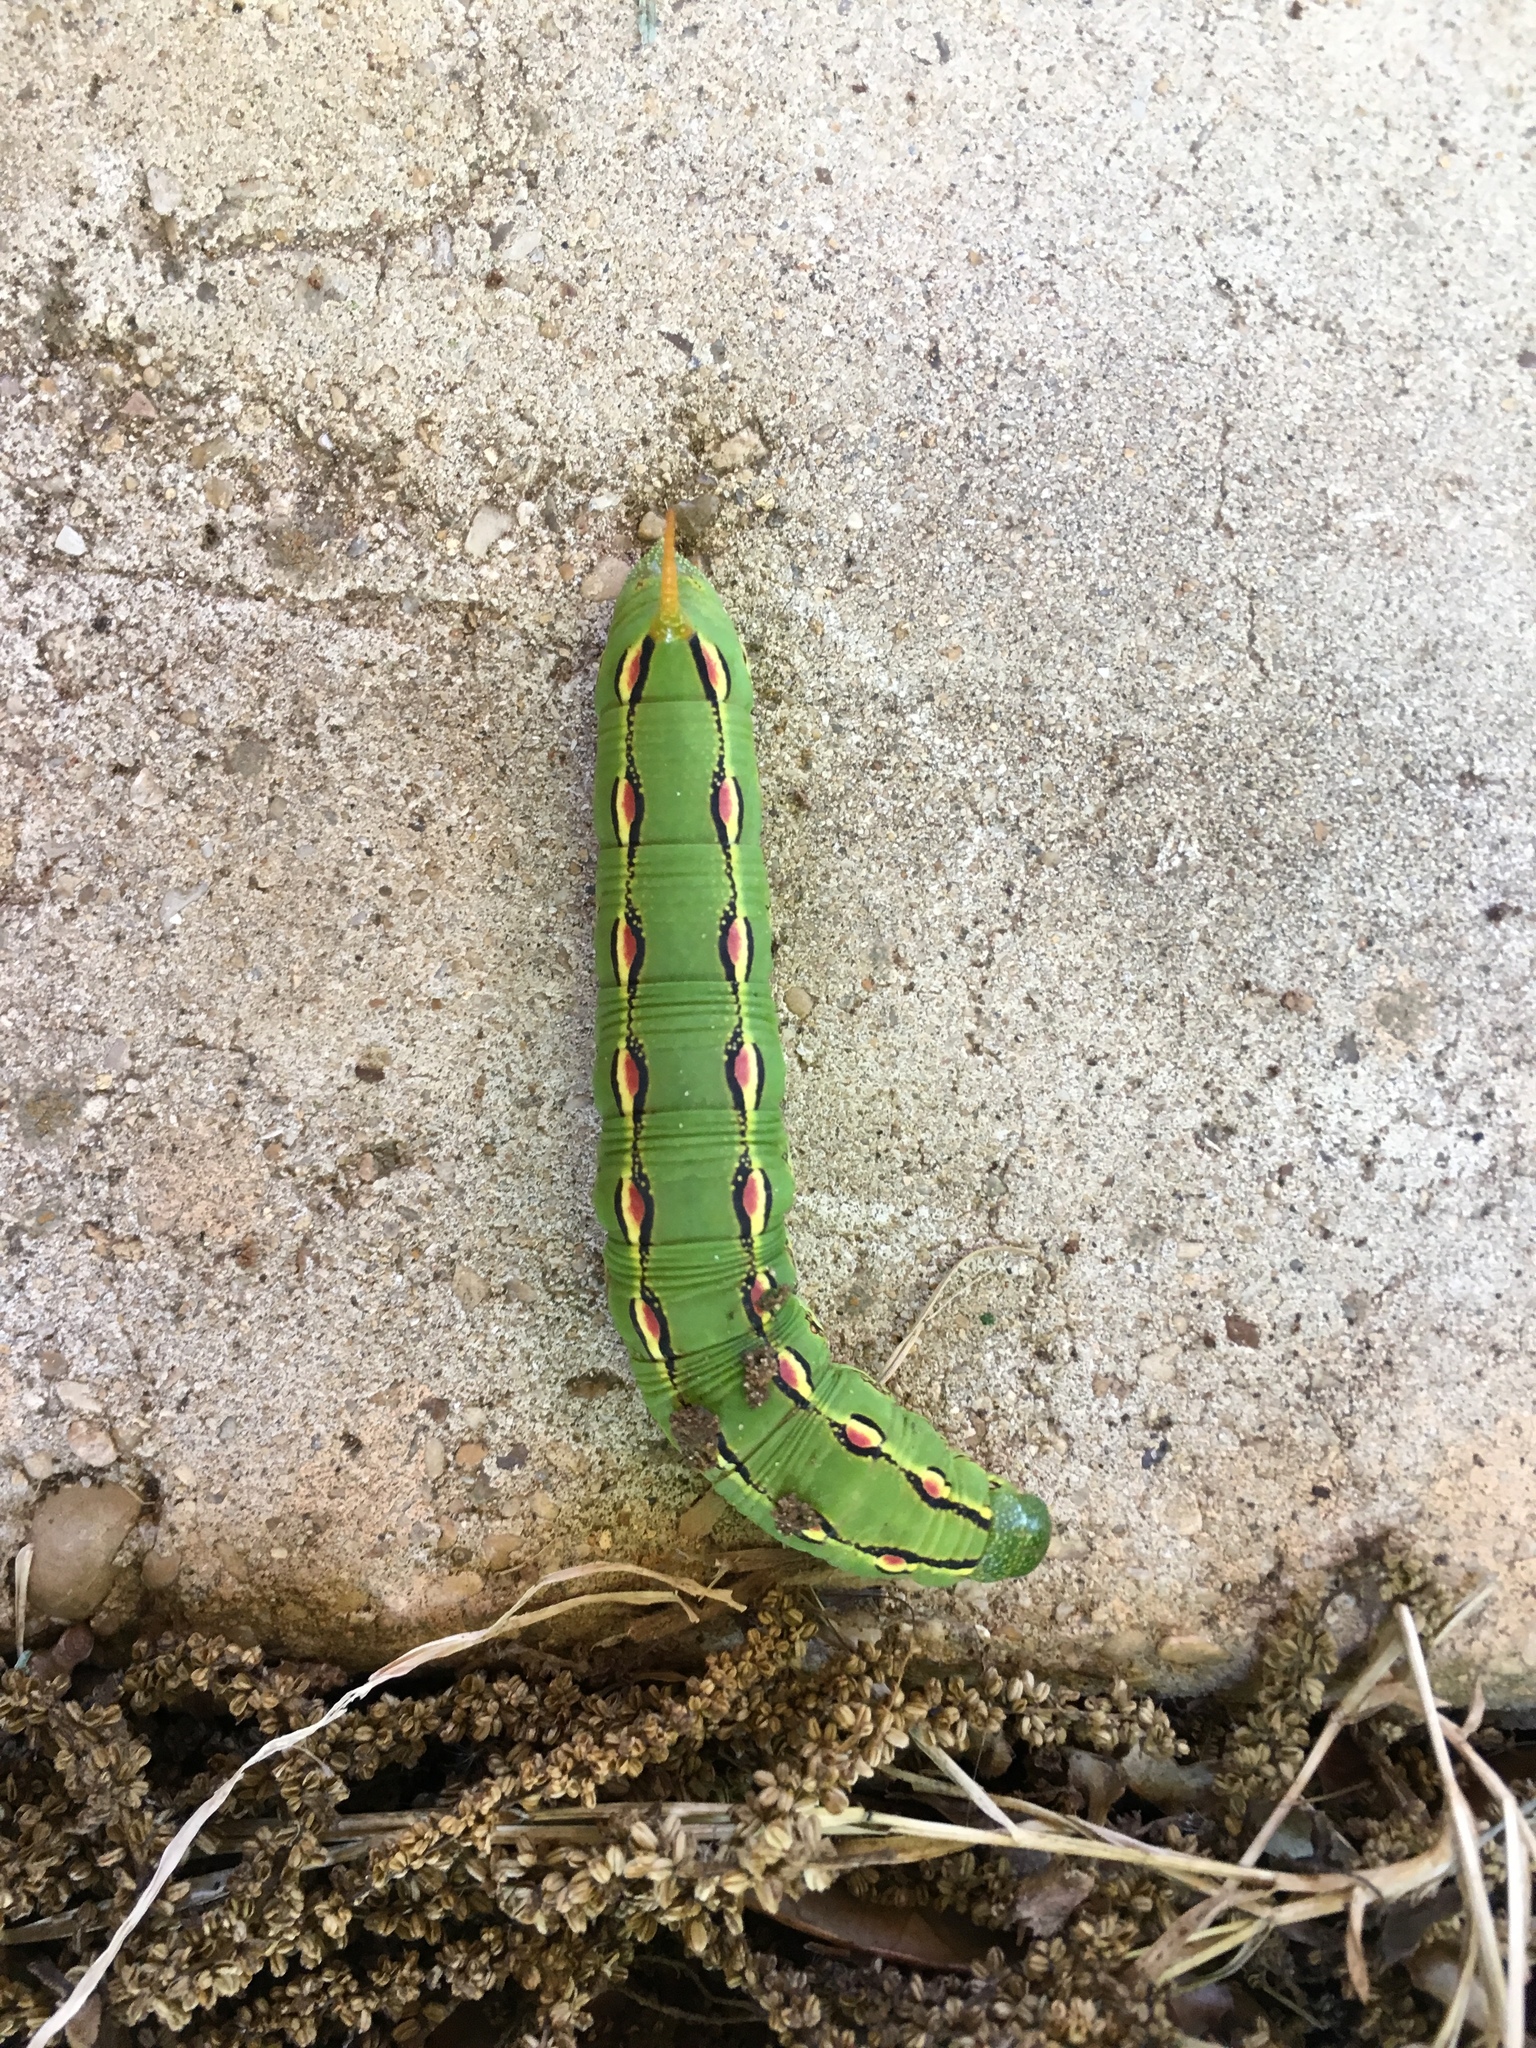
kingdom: Animalia
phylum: Arthropoda
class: Insecta
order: Lepidoptera
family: Sphingidae
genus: Hyles
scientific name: Hyles lineata
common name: White-lined sphinx
